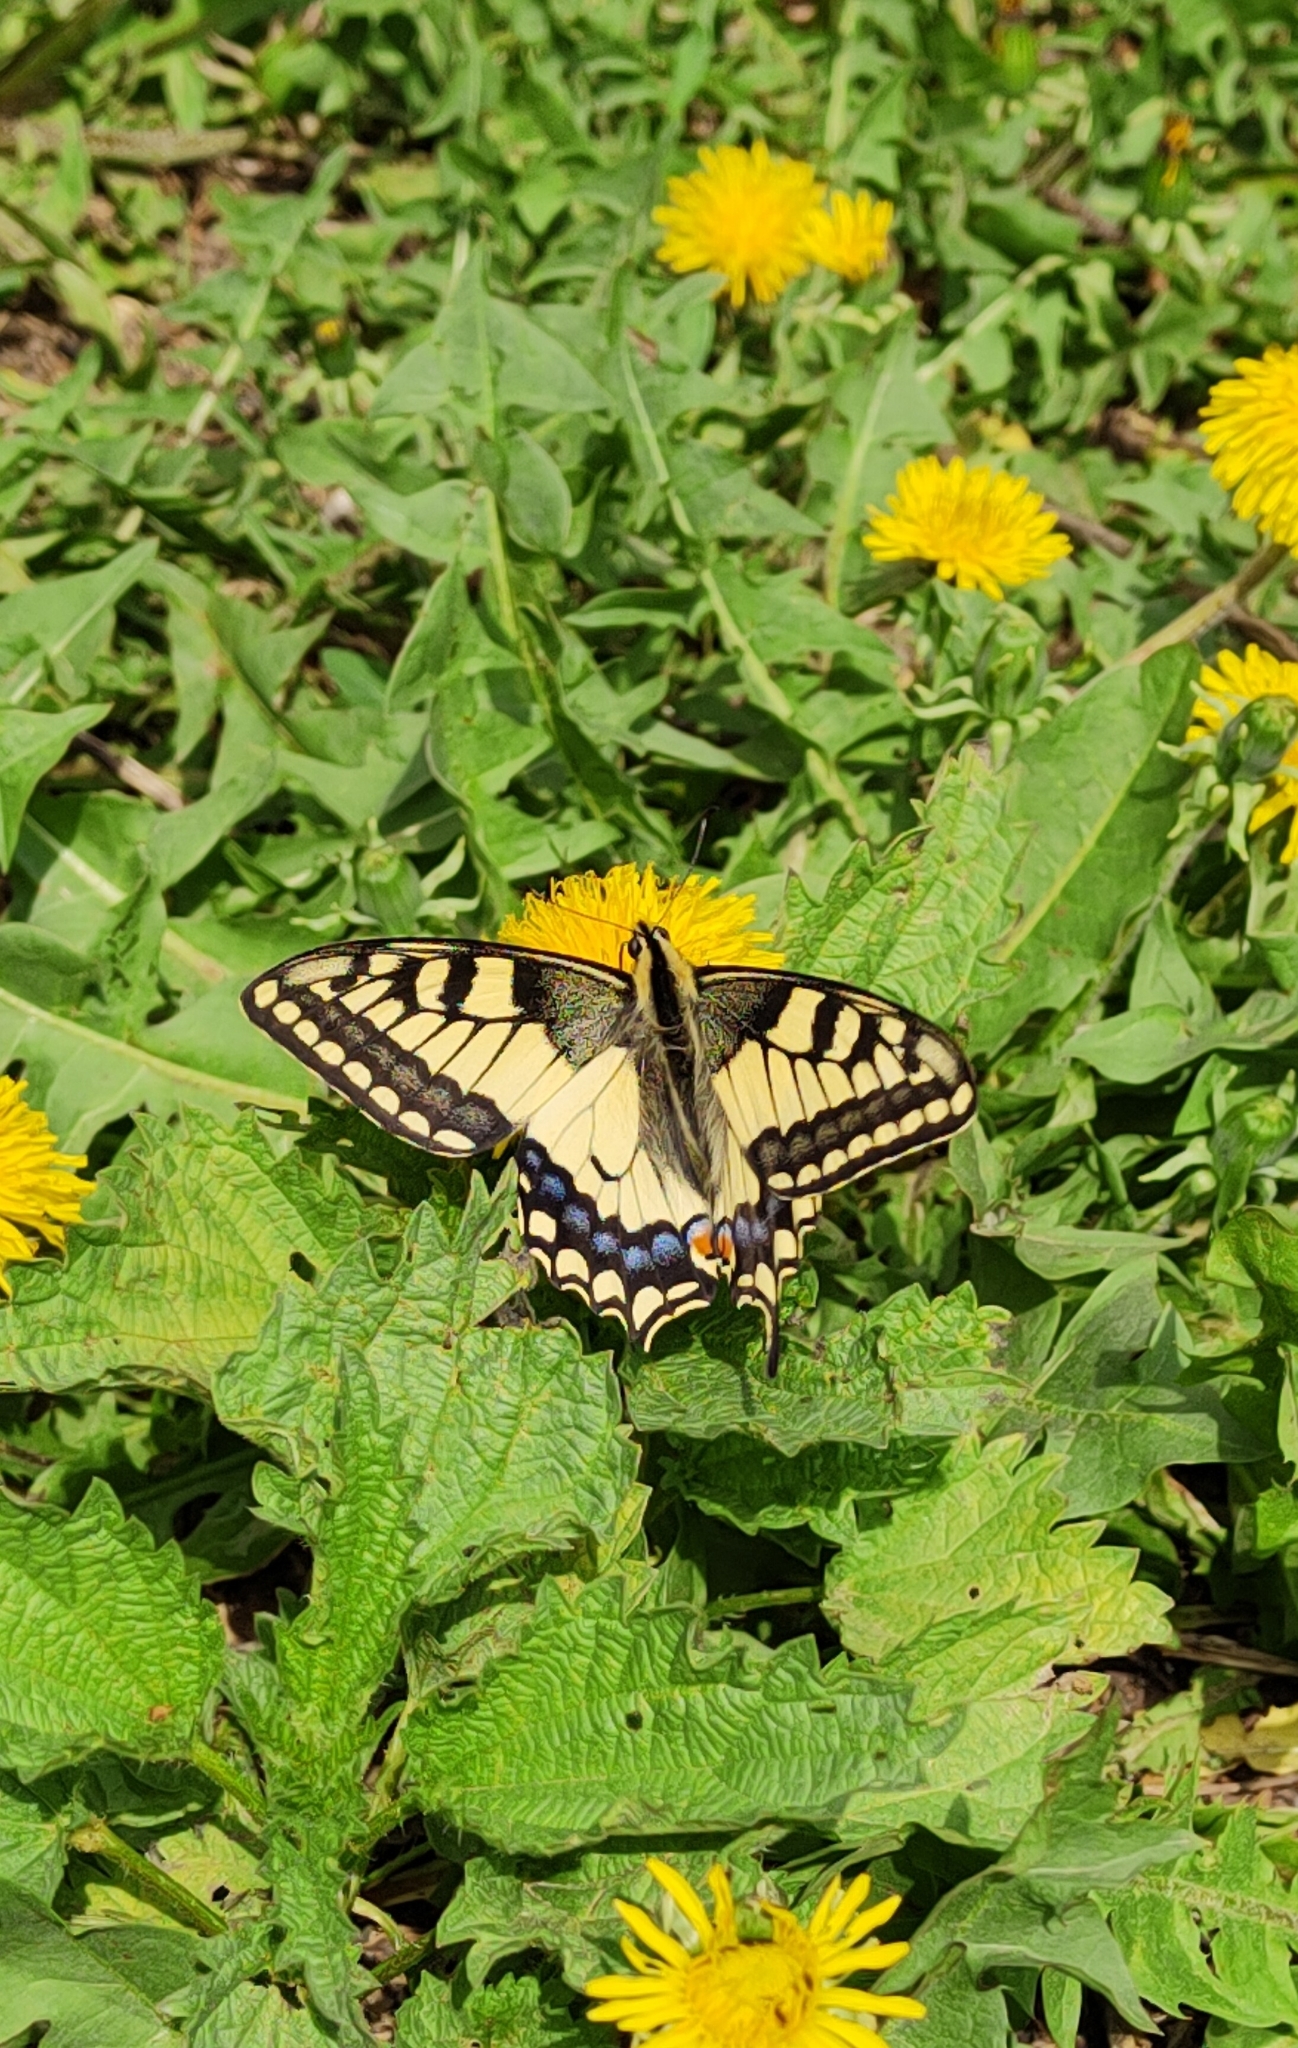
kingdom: Animalia
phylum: Arthropoda
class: Insecta
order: Lepidoptera
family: Papilionidae
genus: Papilio
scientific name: Papilio machaon
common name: Swallowtail
